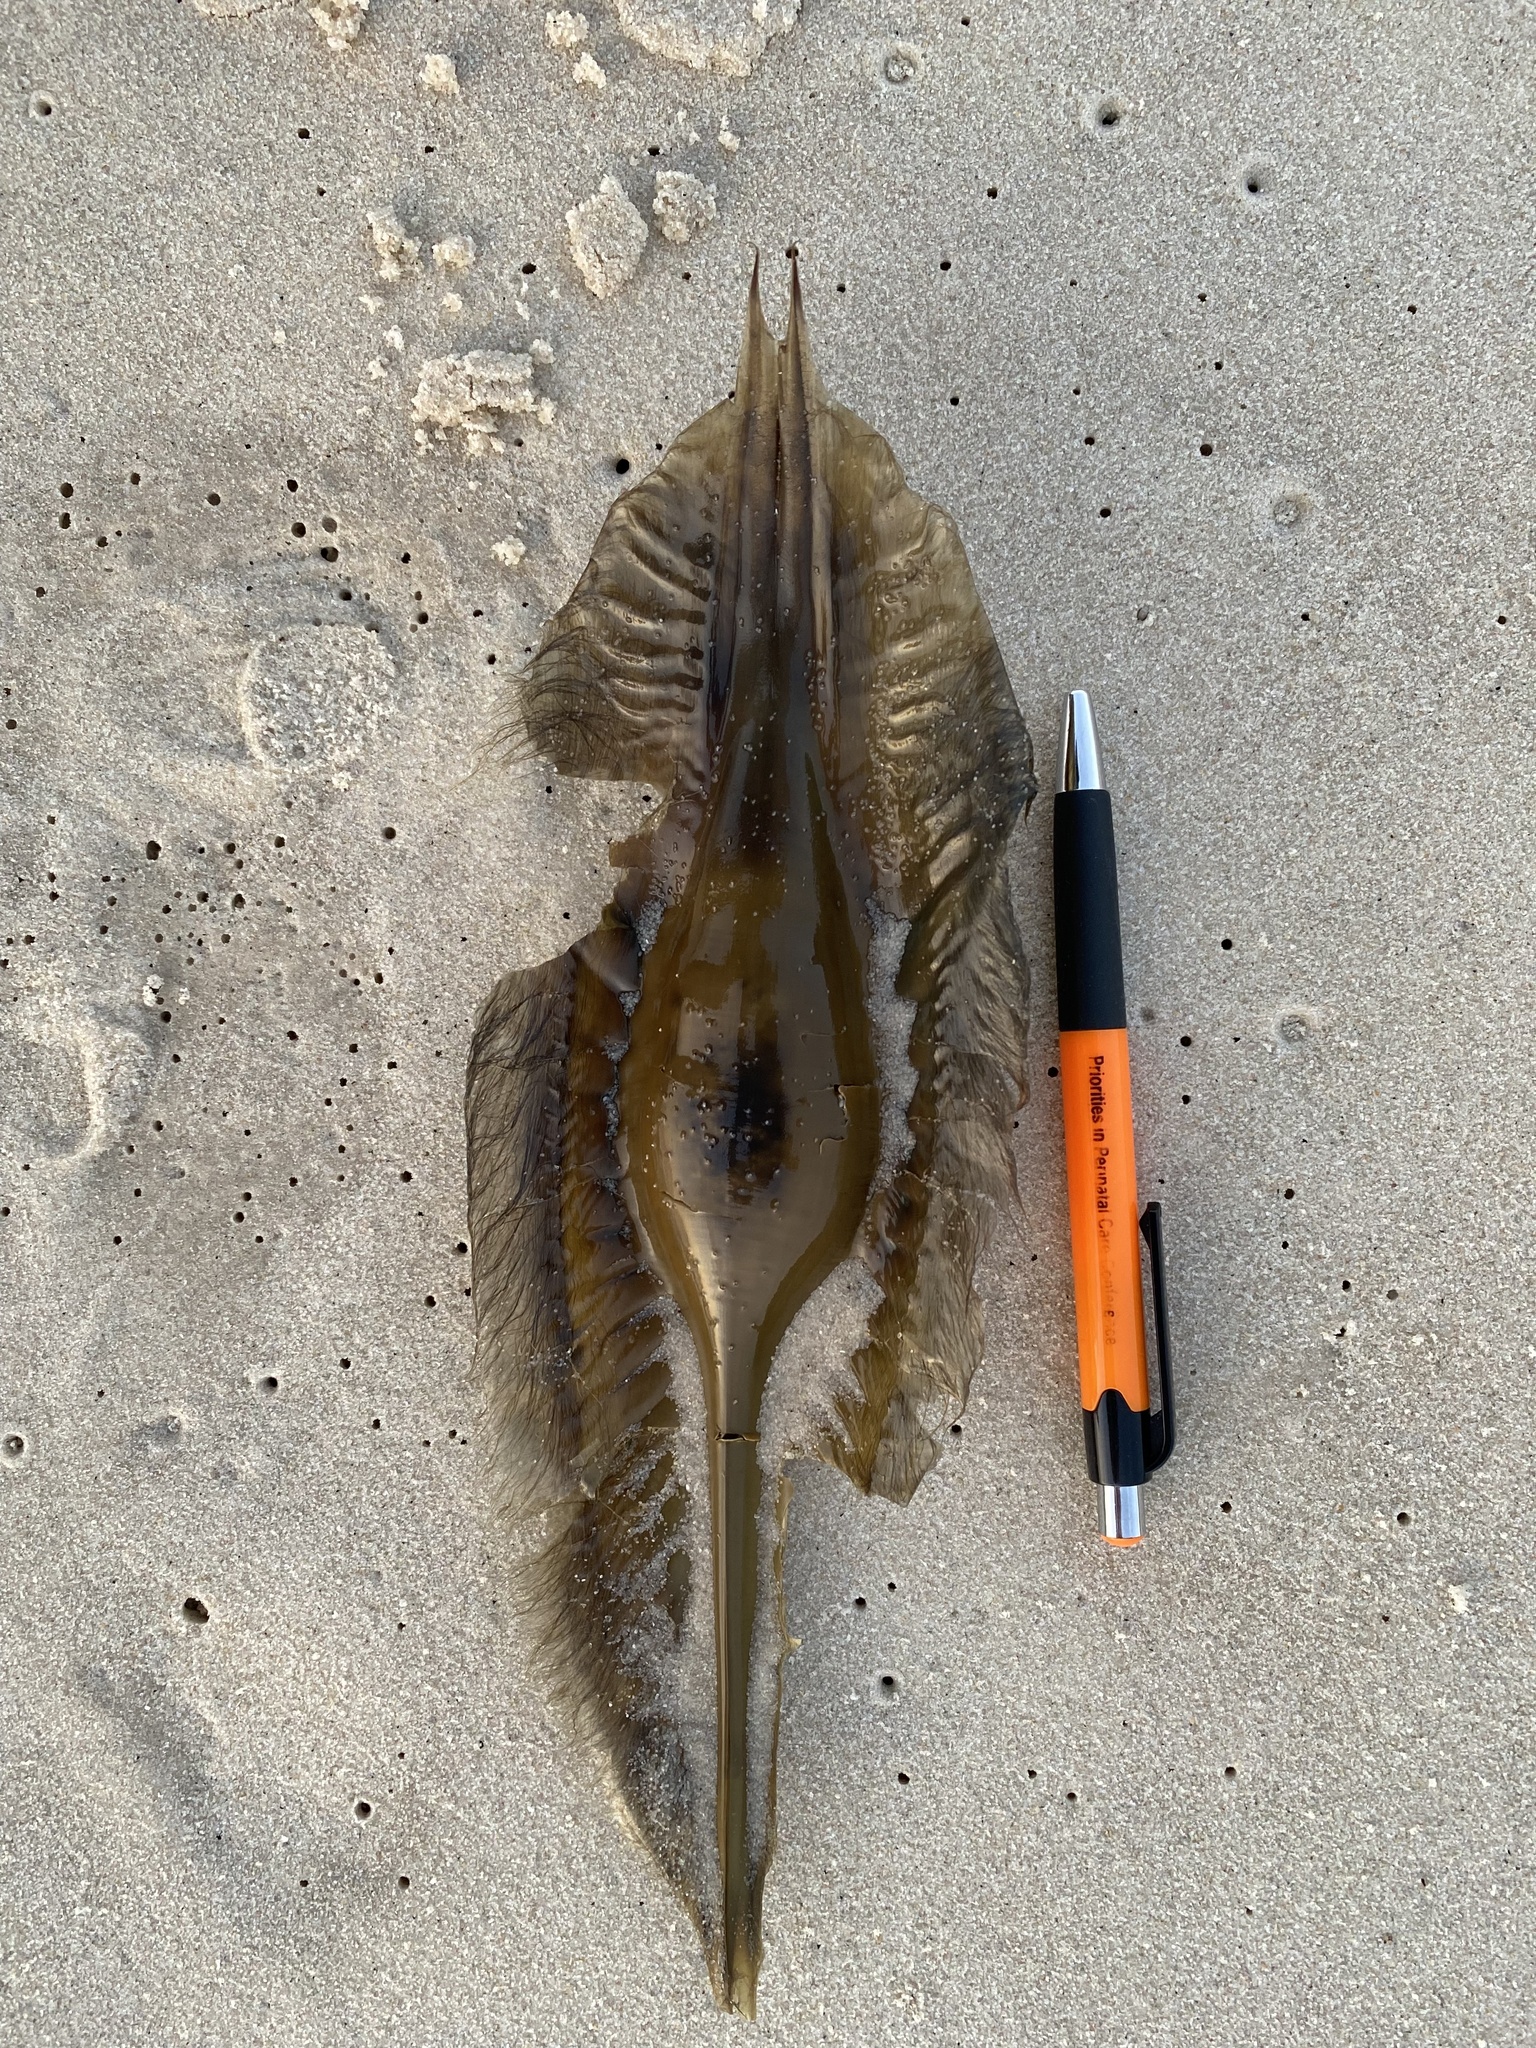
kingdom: Animalia
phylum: Chordata
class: Holocephali
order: Chimaeriformes
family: Callorhinchidae
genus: Callorhinchus
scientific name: Callorhinchus capensis
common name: Cape elephantfish
